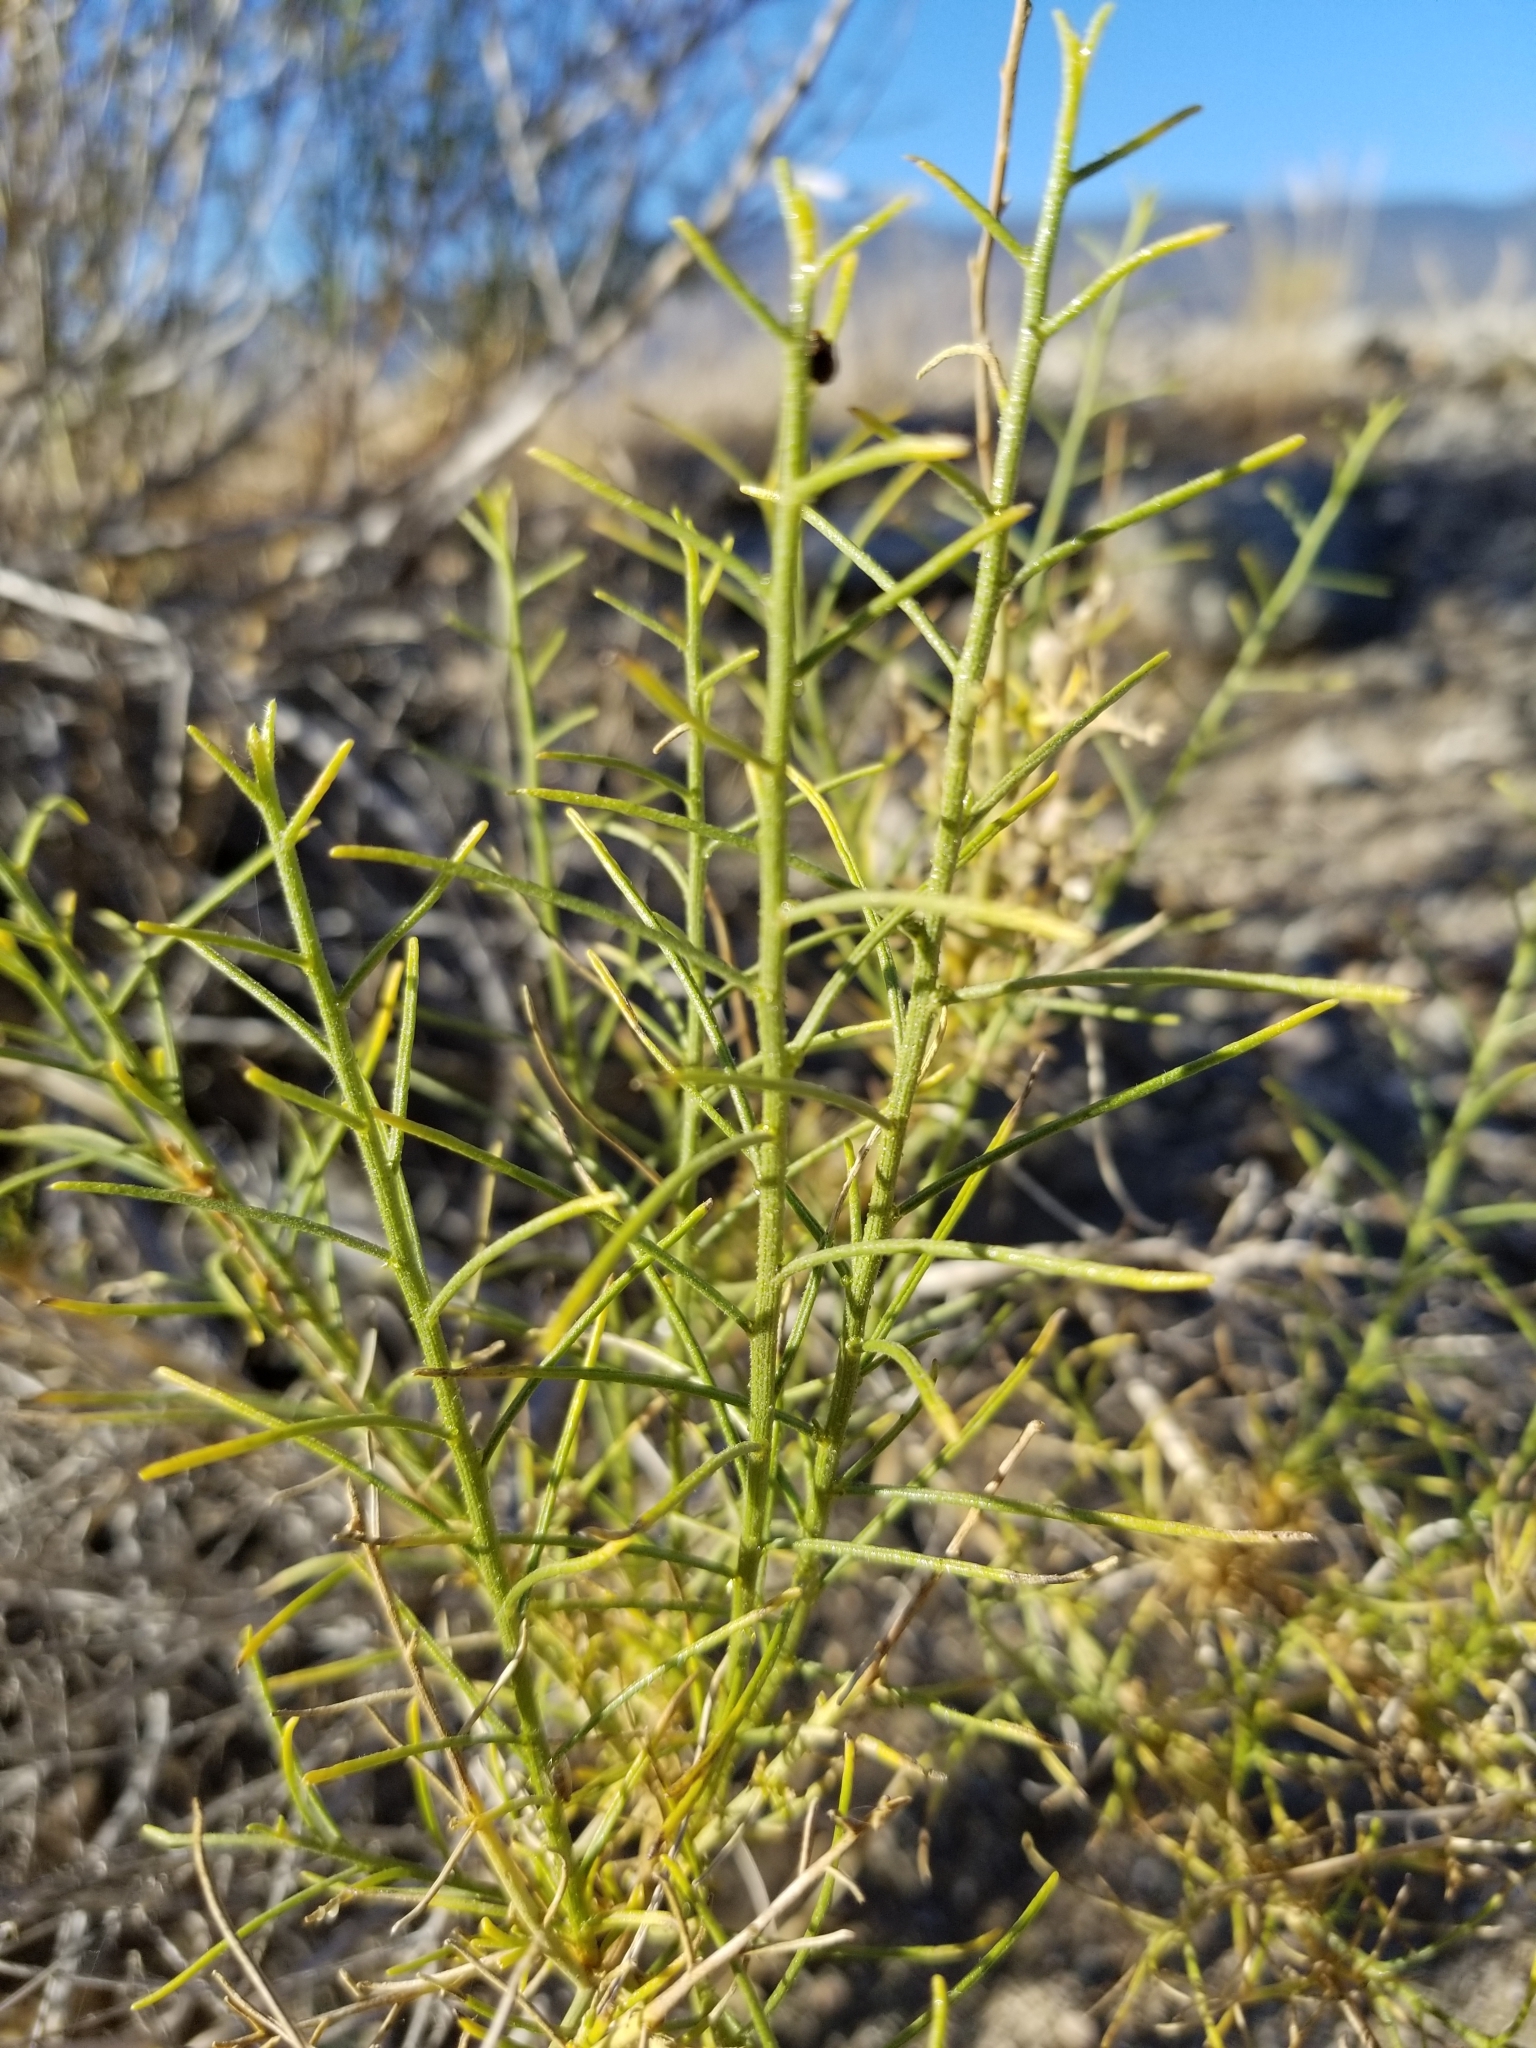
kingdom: Plantae
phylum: Tracheophyta
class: Magnoliopsida
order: Asterales
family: Asteraceae
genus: Ambrosia
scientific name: Ambrosia salsola
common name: Burrobrush
